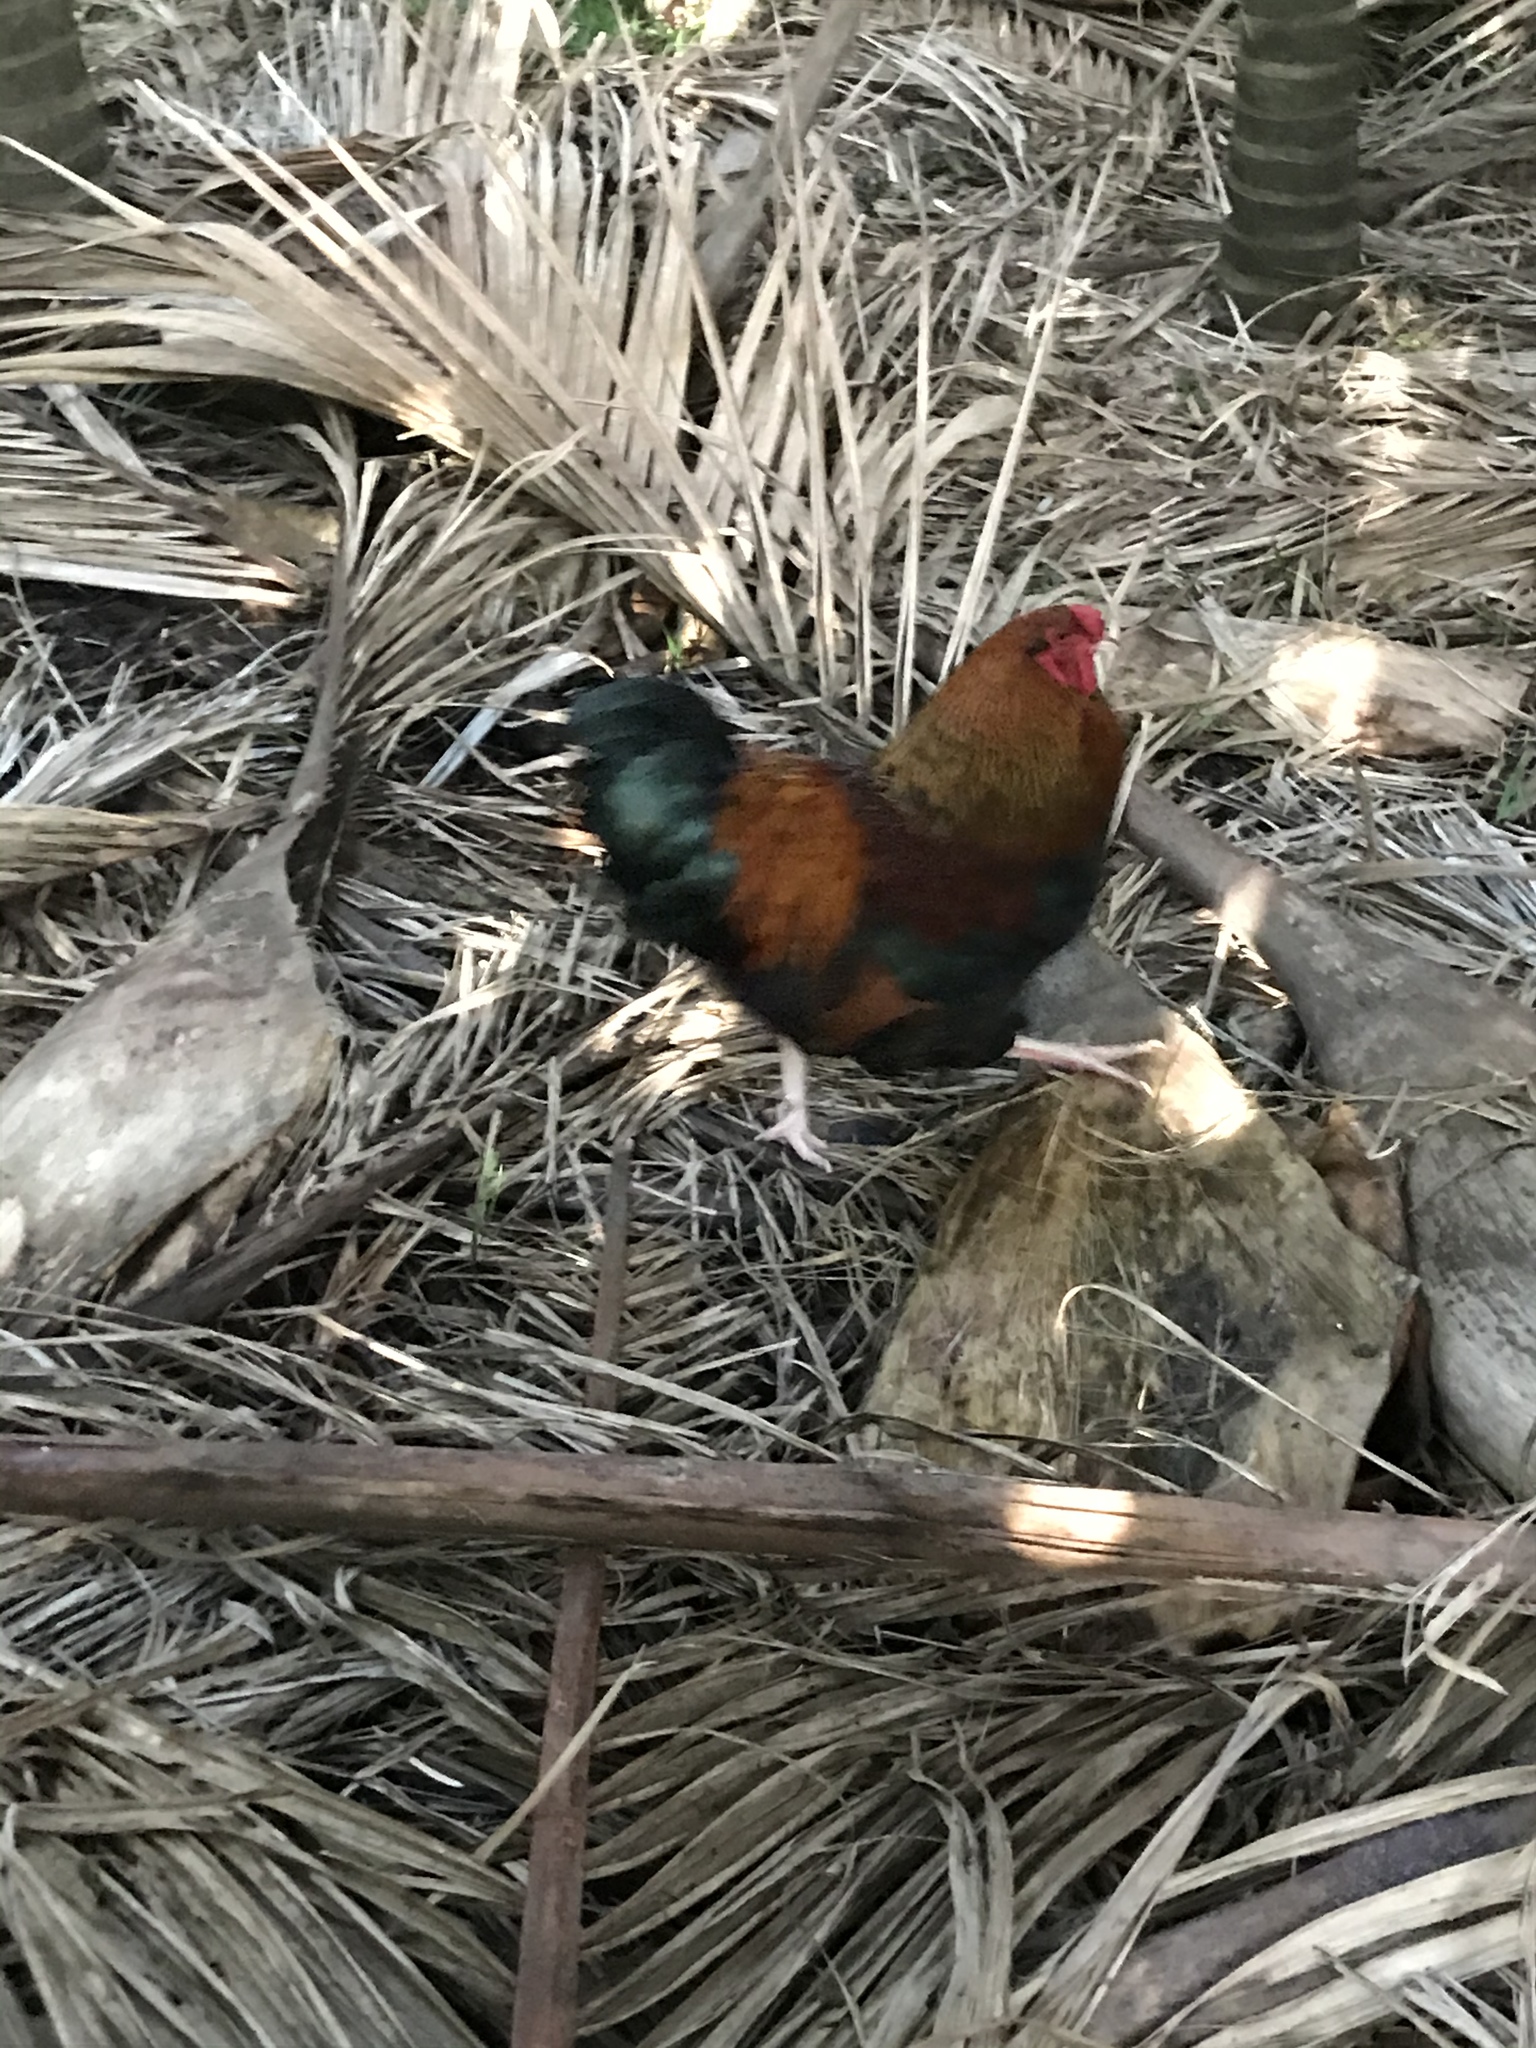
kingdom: Animalia
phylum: Chordata
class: Aves
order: Galliformes
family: Phasianidae
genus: Gallus
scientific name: Gallus gallus
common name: Red junglefowl
